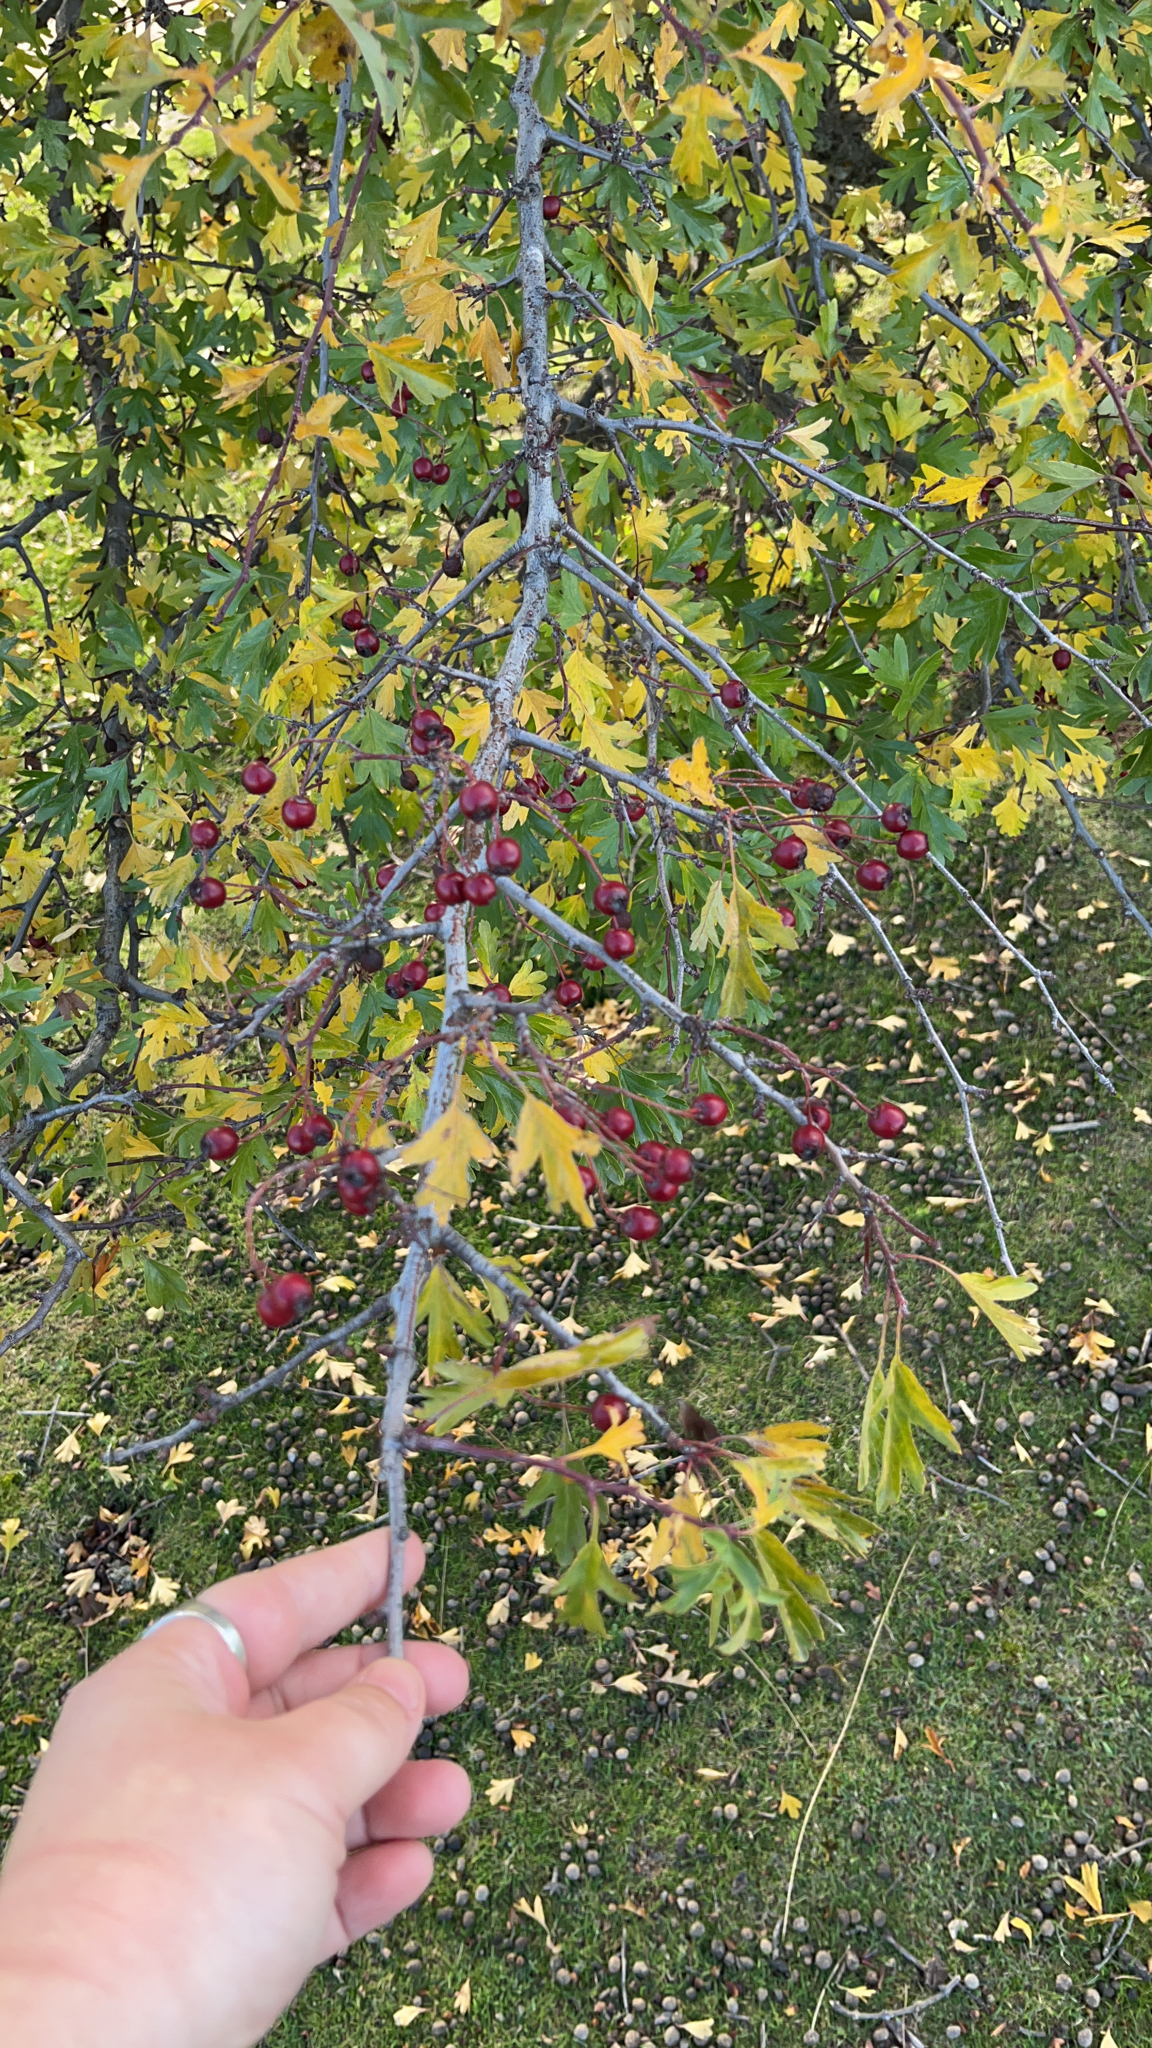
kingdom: Plantae
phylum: Tracheophyta
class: Magnoliopsida
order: Rosales
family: Rosaceae
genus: Crataegus
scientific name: Crataegus monogyna
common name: Hawthorn
